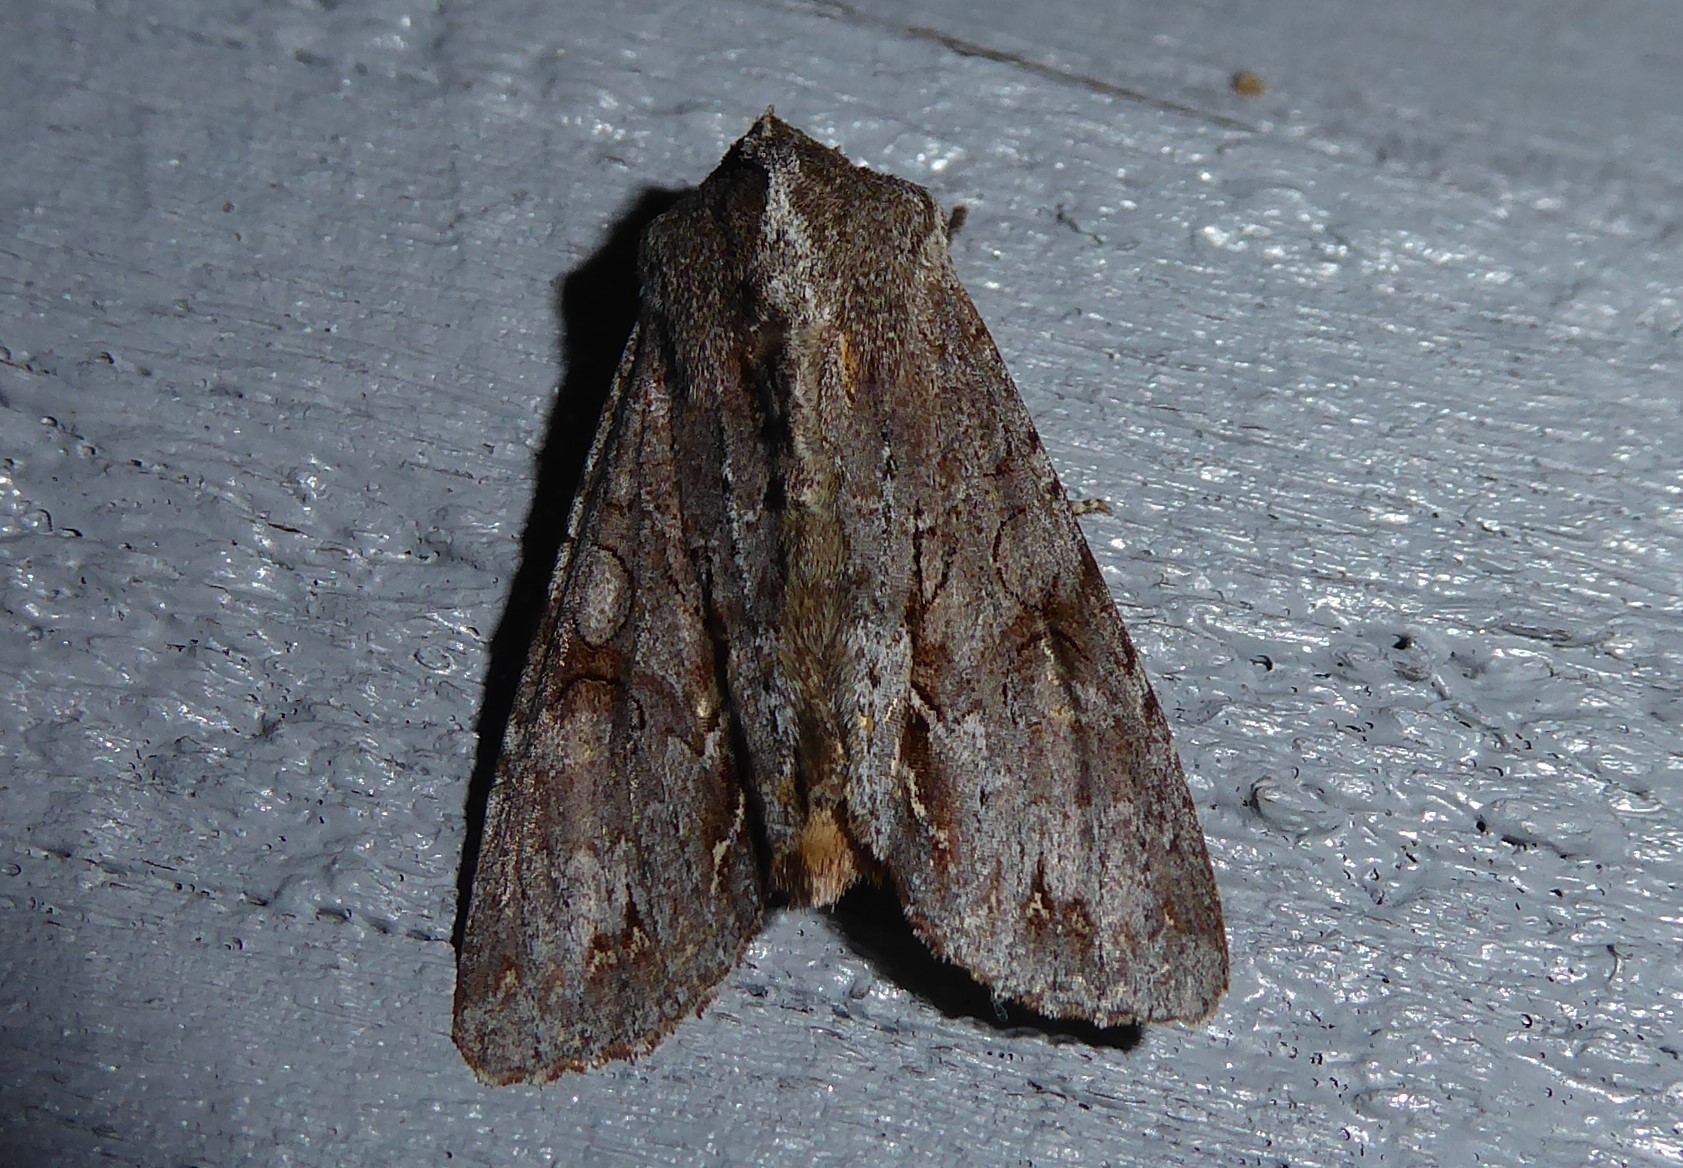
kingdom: Animalia
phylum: Arthropoda
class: Insecta
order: Lepidoptera
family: Noctuidae
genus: Ichneutica
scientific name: Ichneutica
